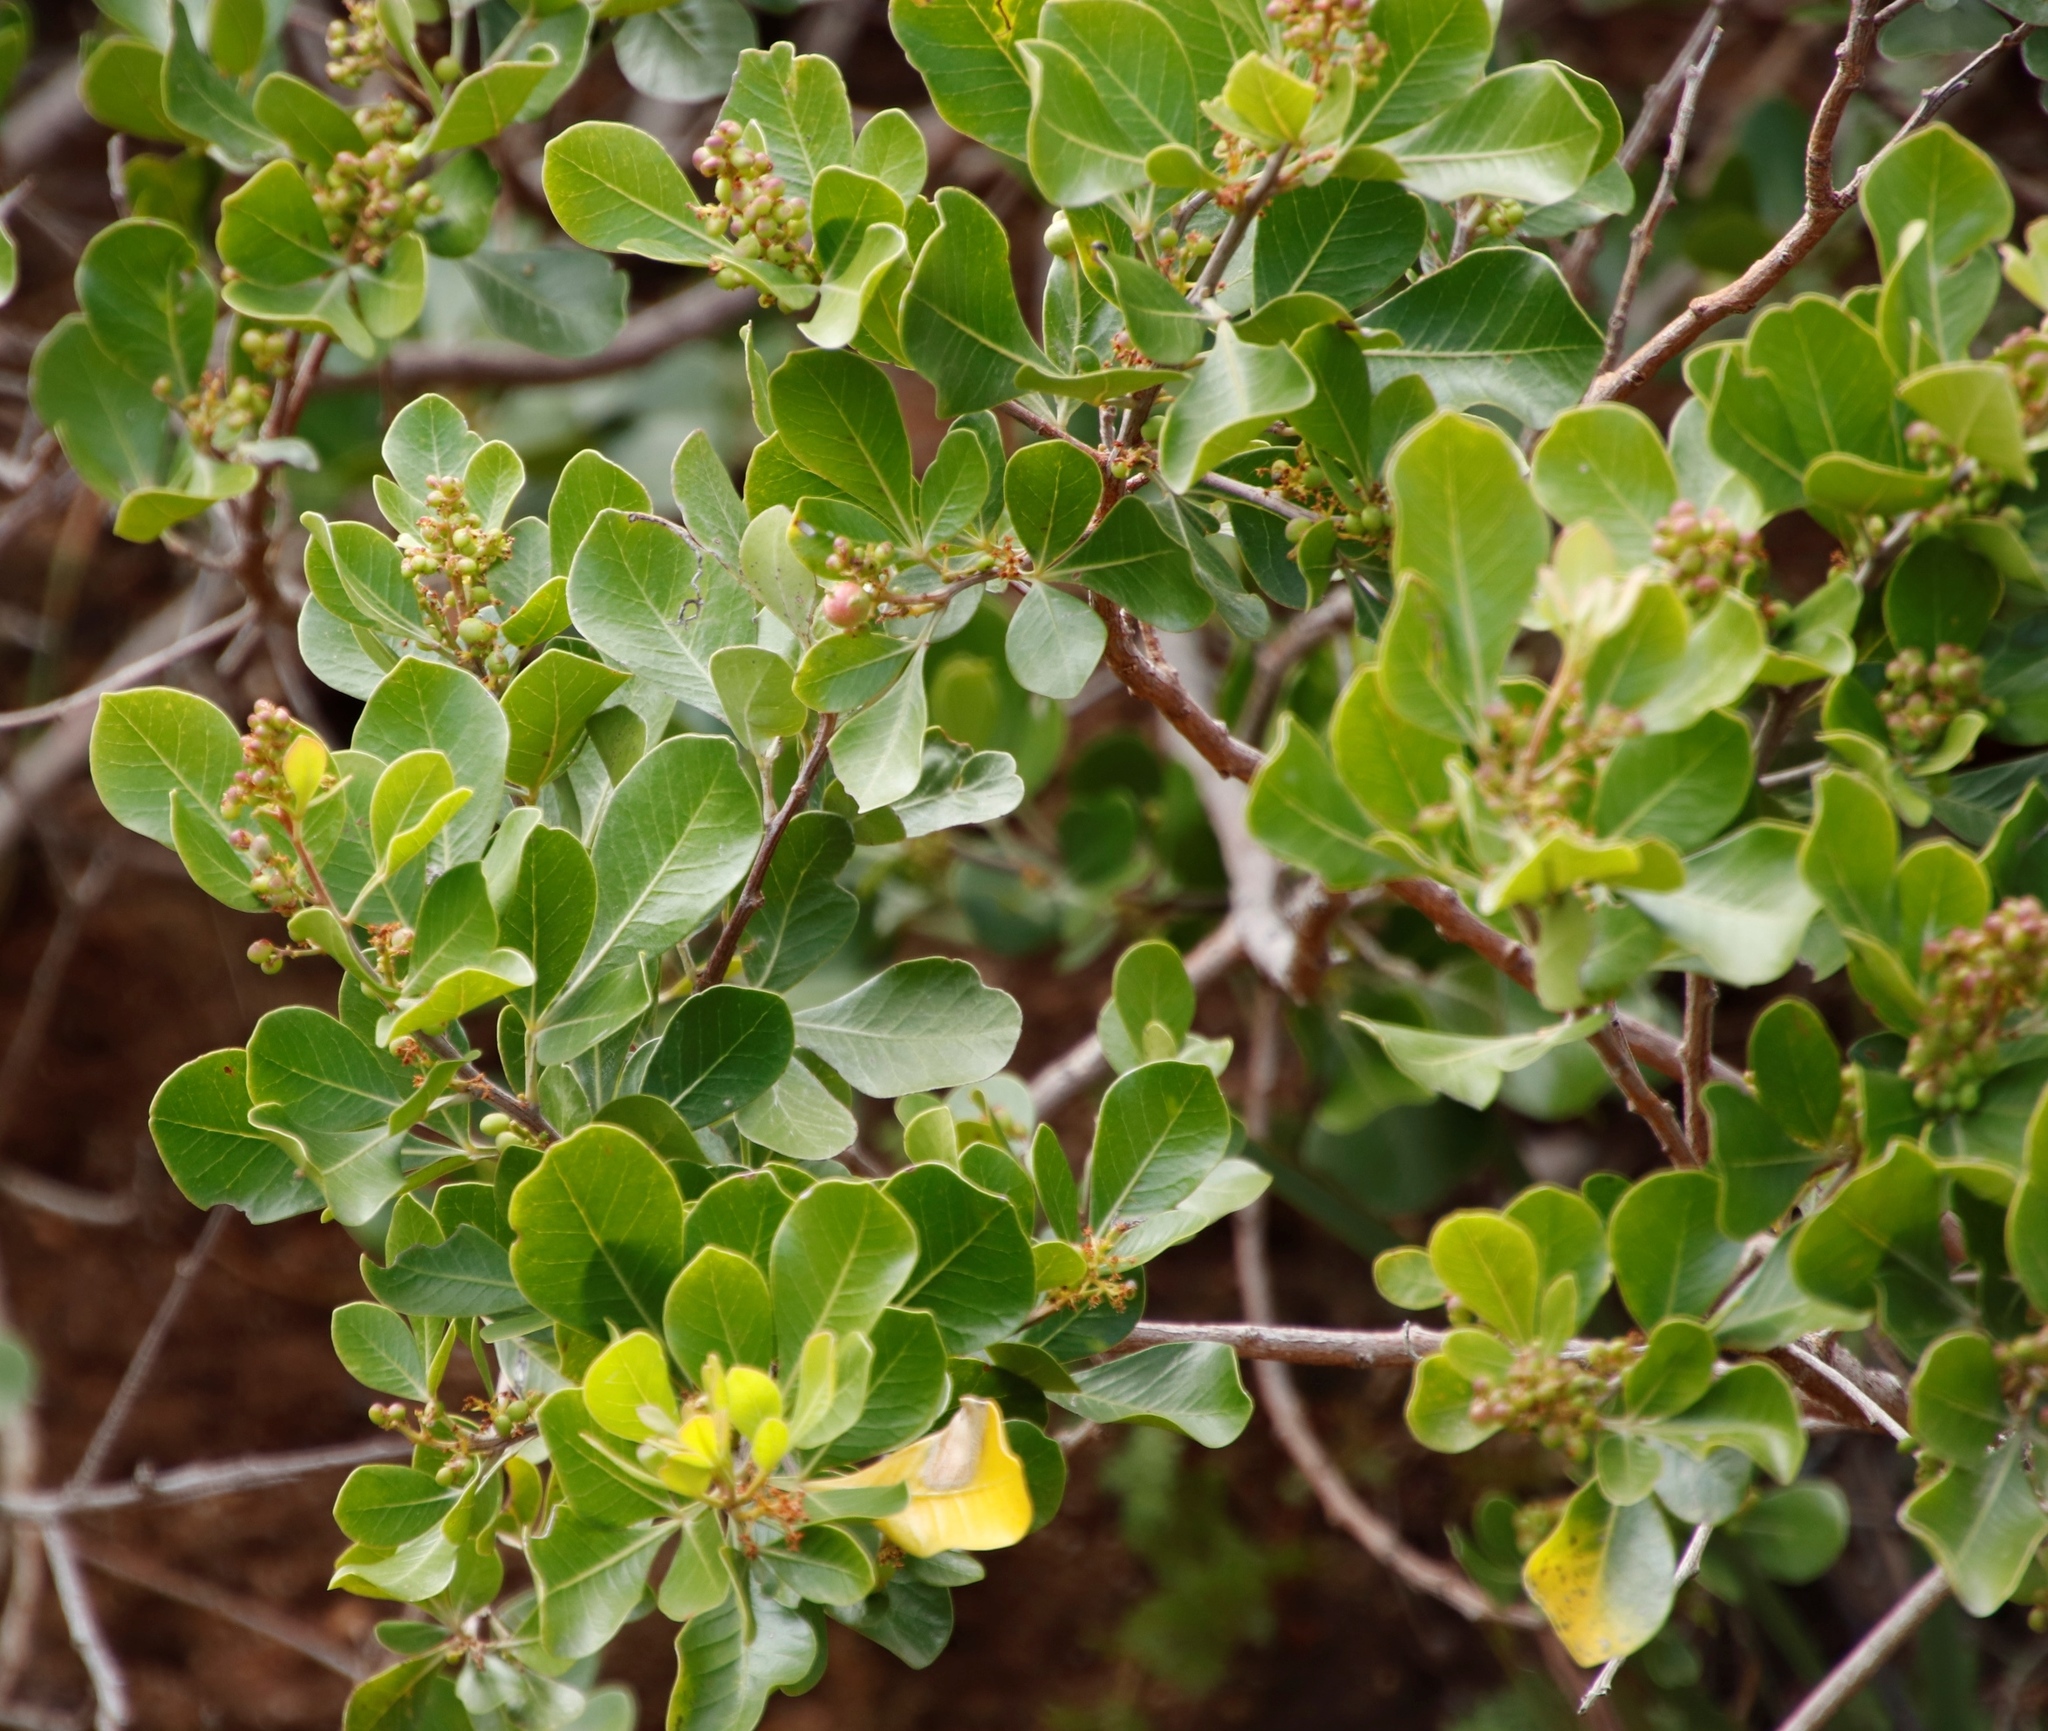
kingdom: Plantae
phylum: Tracheophyta
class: Magnoliopsida
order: Sapindales
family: Anacardiaceae
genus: Searsia
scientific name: Searsia lucida
